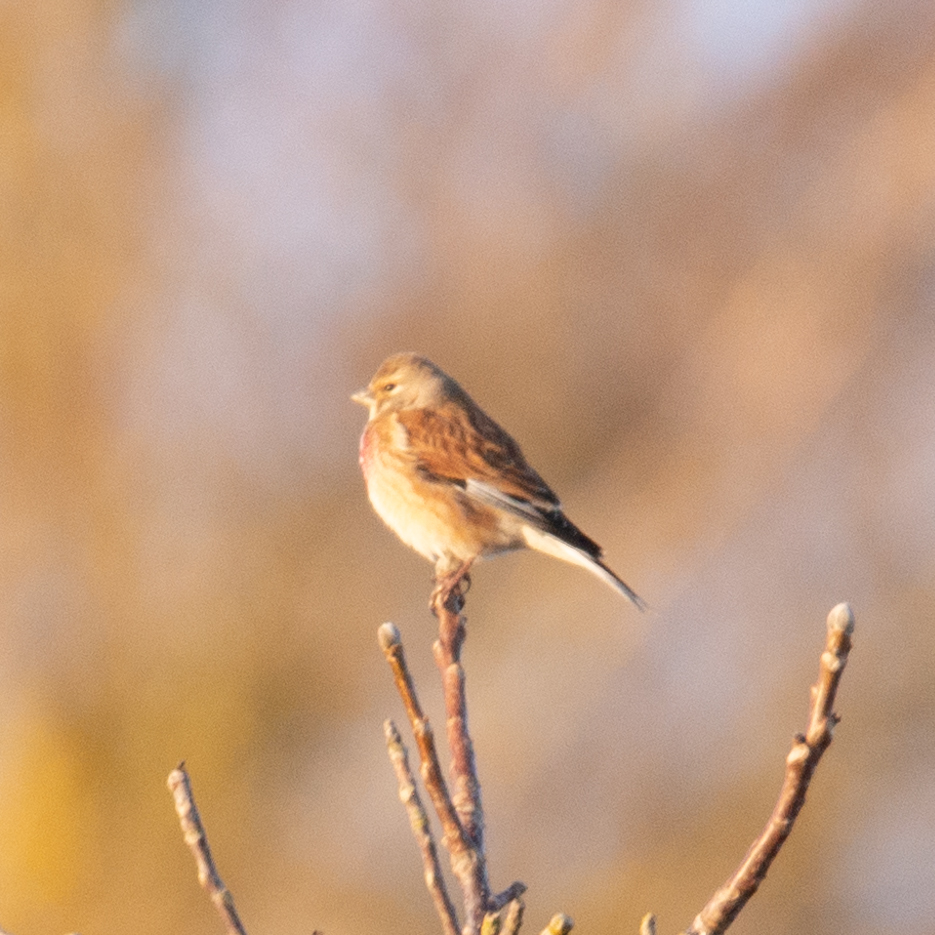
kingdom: Animalia
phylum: Chordata
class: Aves
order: Passeriformes
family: Fringillidae
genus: Linaria
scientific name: Linaria cannabina
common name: Common linnet
